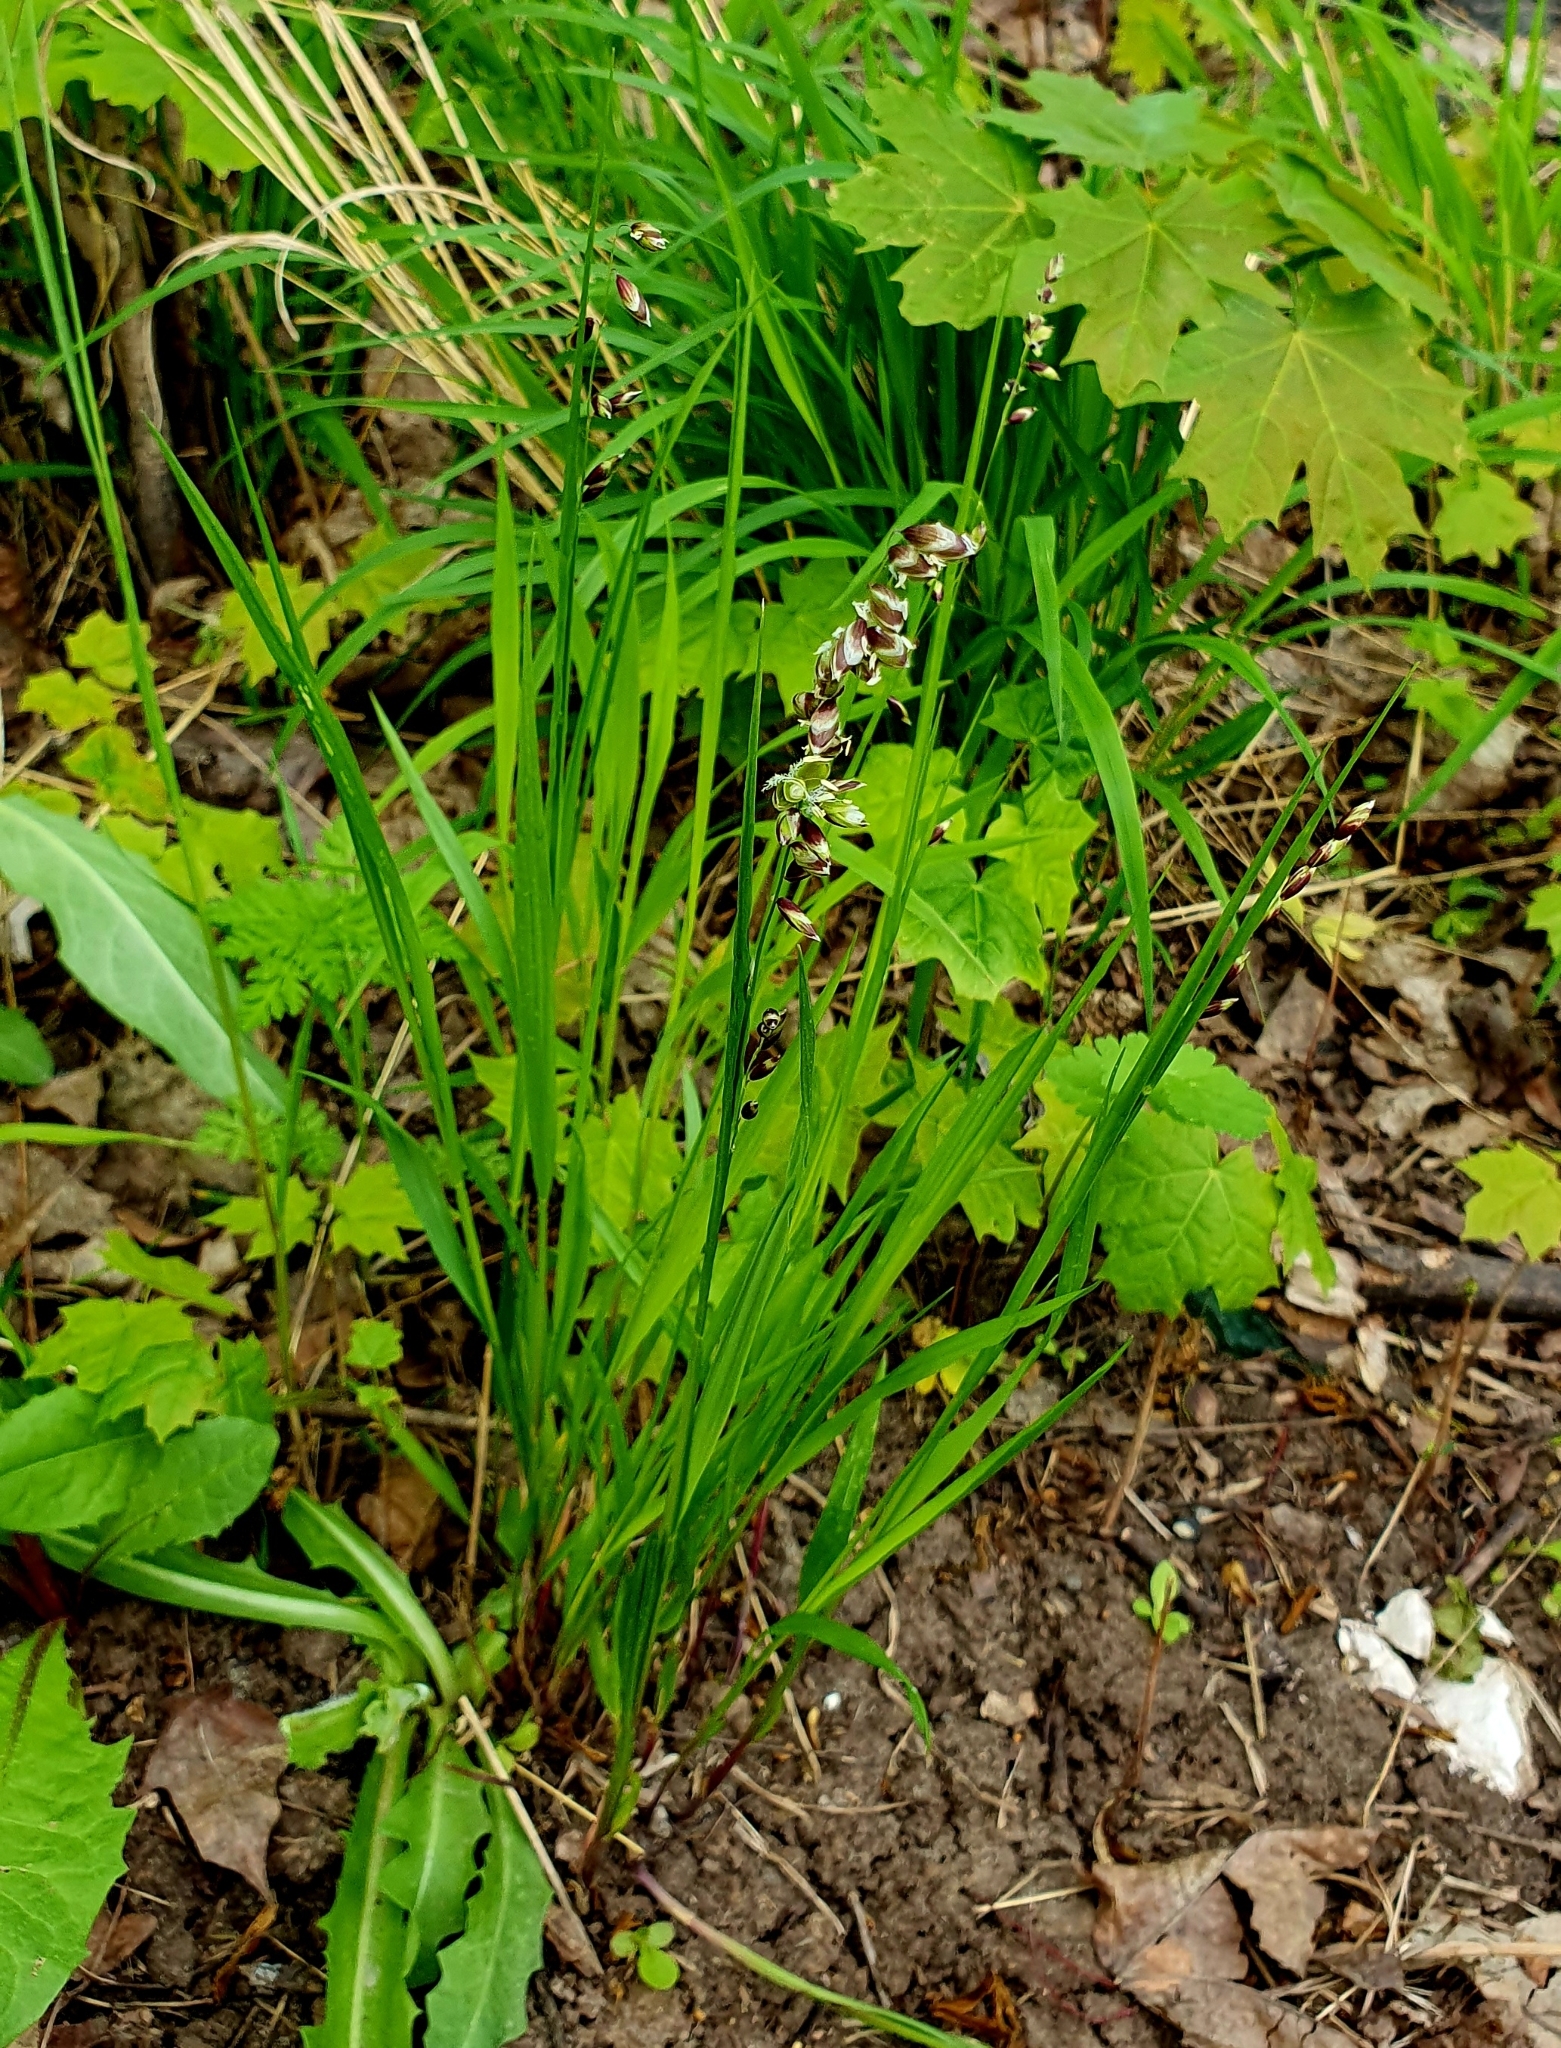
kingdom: Plantae
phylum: Tracheophyta
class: Liliopsida
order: Poales
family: Poaceae
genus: Melica
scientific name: Melica nutans
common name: Mountain melick
